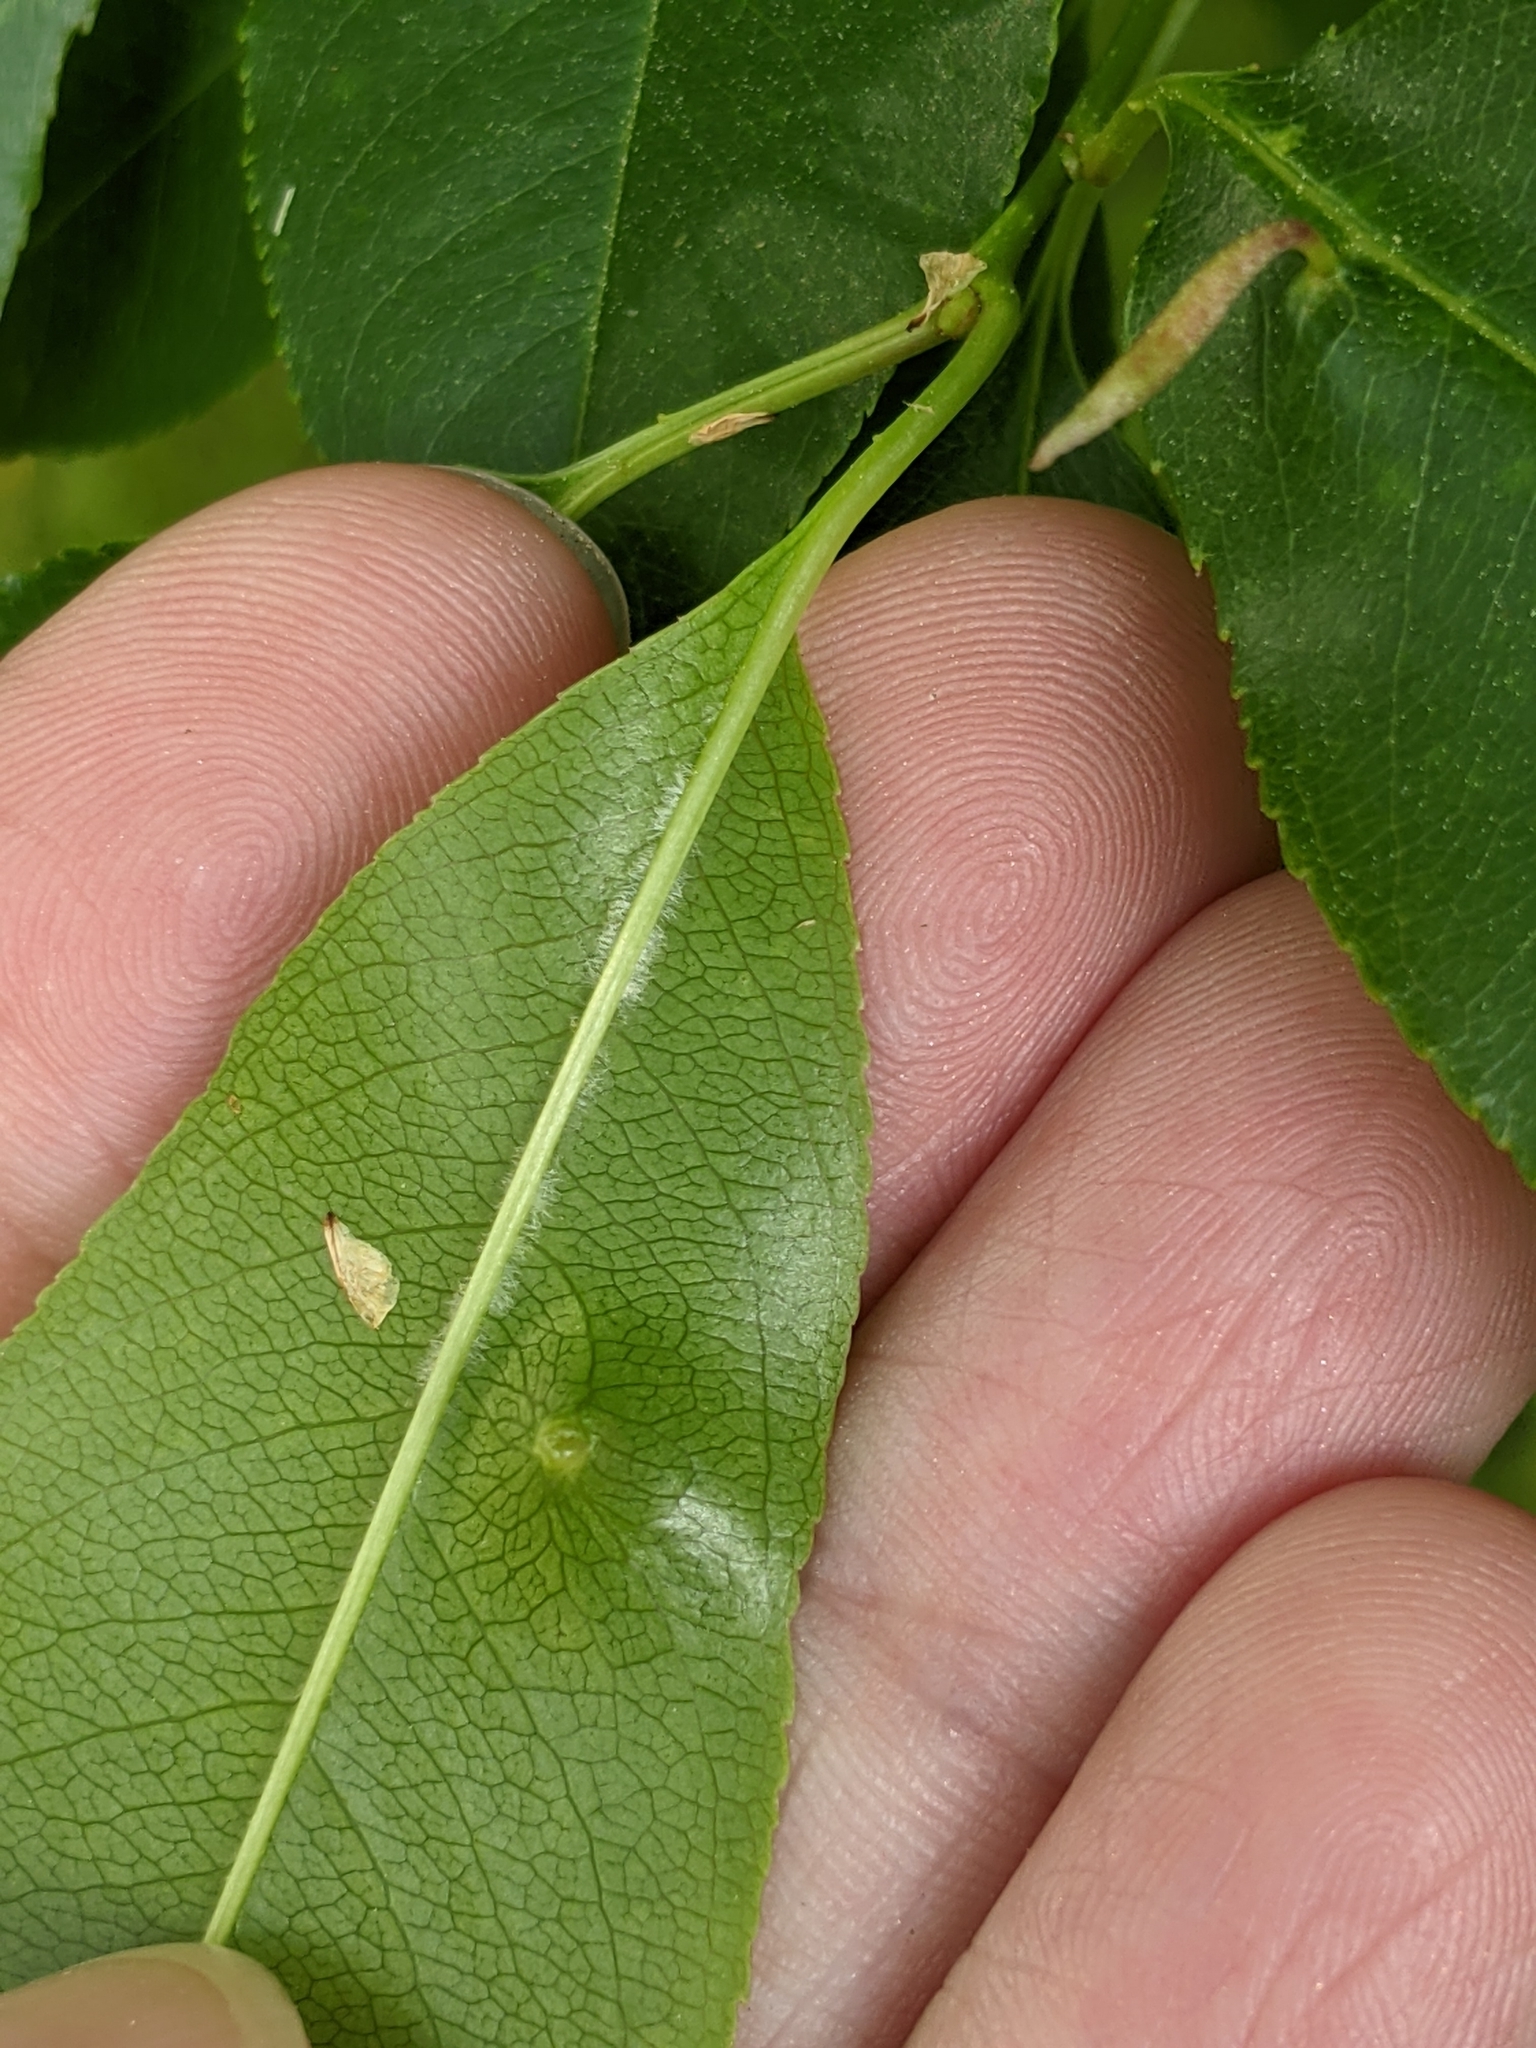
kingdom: Animalia
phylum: Arthropoda
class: Arachnida
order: Trombidiformes
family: Eriophyidae
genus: Eriophyes
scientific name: Eriophyes
